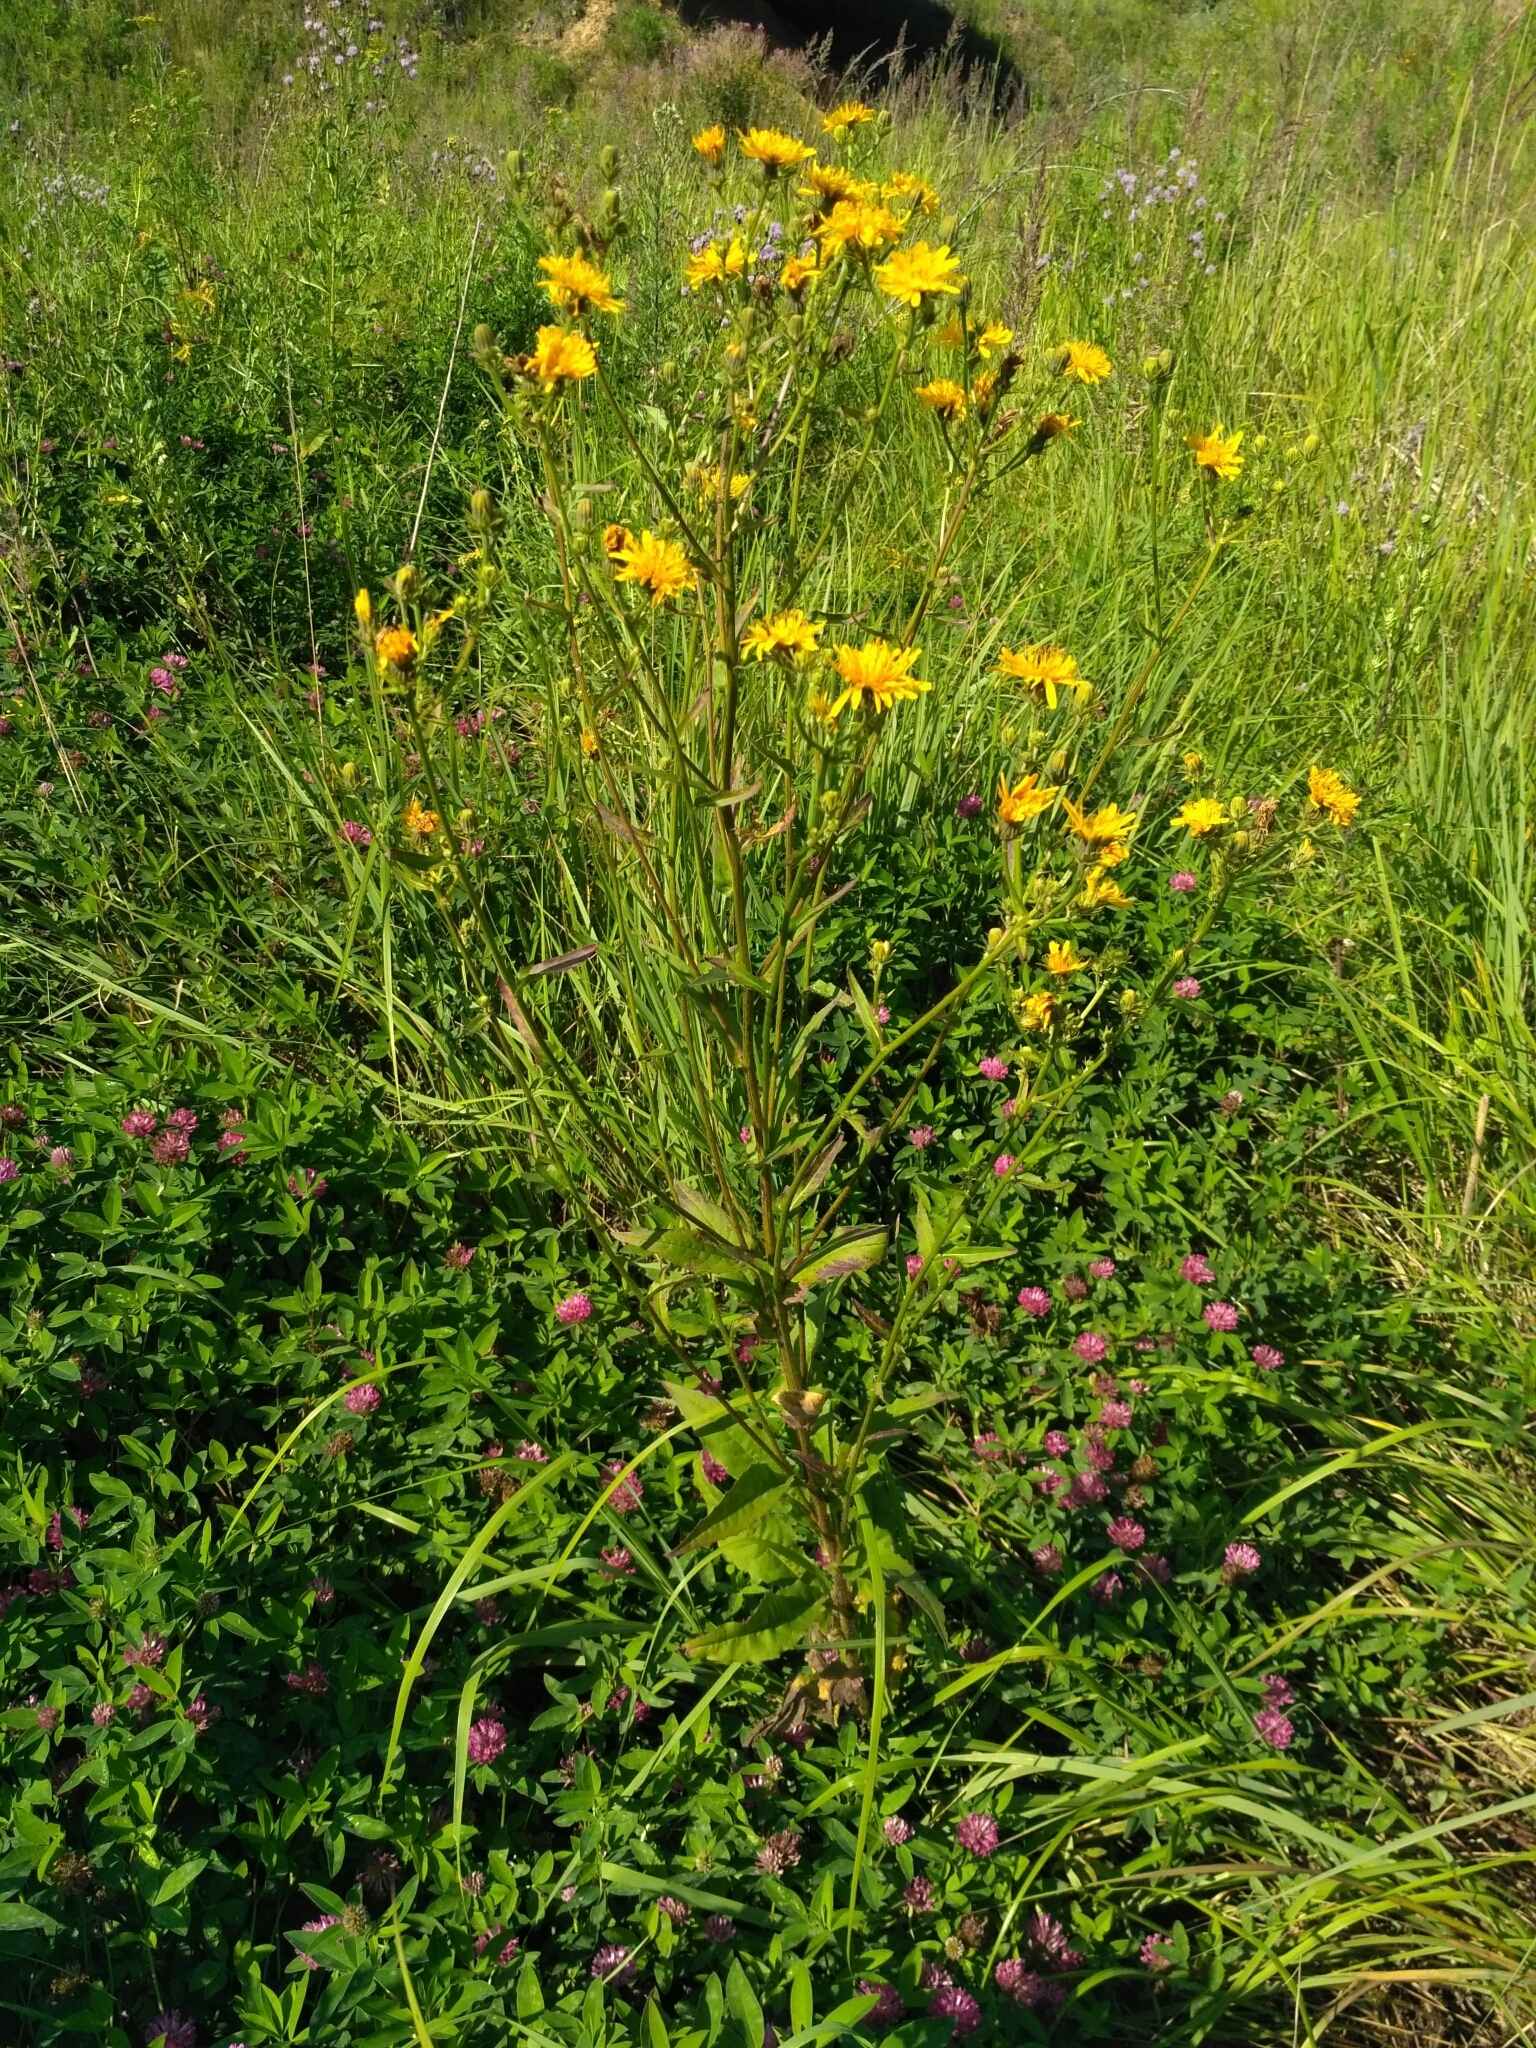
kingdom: Plantae
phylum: Tracheophyta
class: Magnoliopsida
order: Asterales
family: Asteraceae
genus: Picris
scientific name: Picris hieracioides
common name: Hawkweed oxtongue
